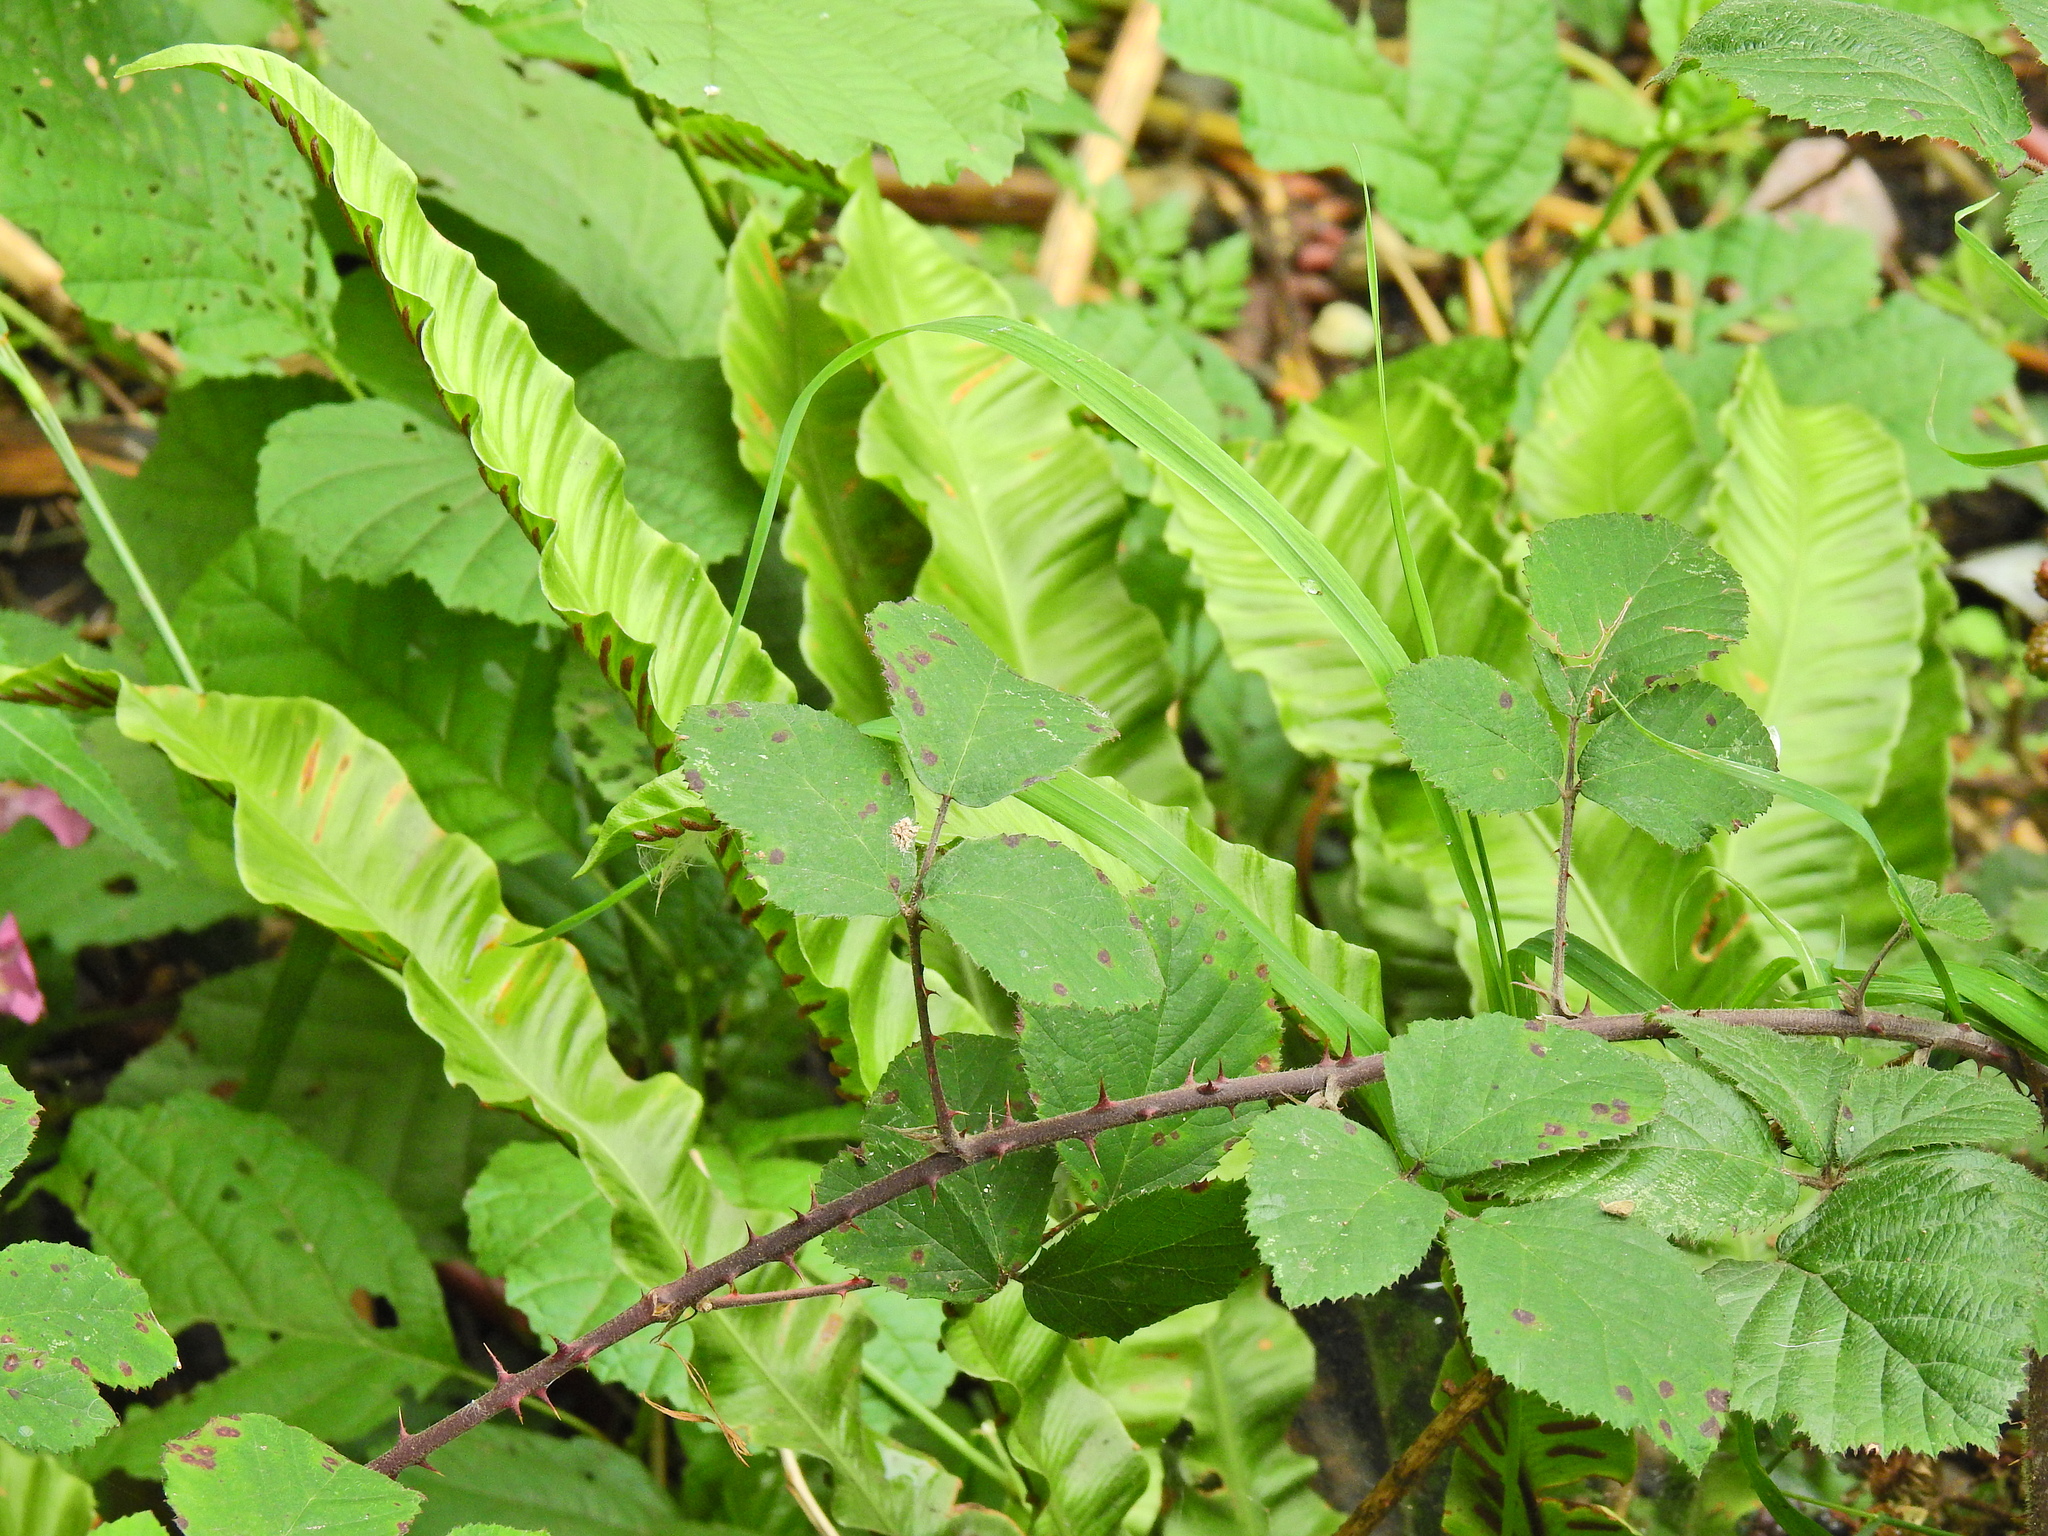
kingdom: Plantae
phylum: Tracheophyta
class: Polypodiopsida
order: Polypodiales
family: Aspleniaceae
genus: Asplenium
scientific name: Asplenium scolopendrium
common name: Hart's-tongue fern
